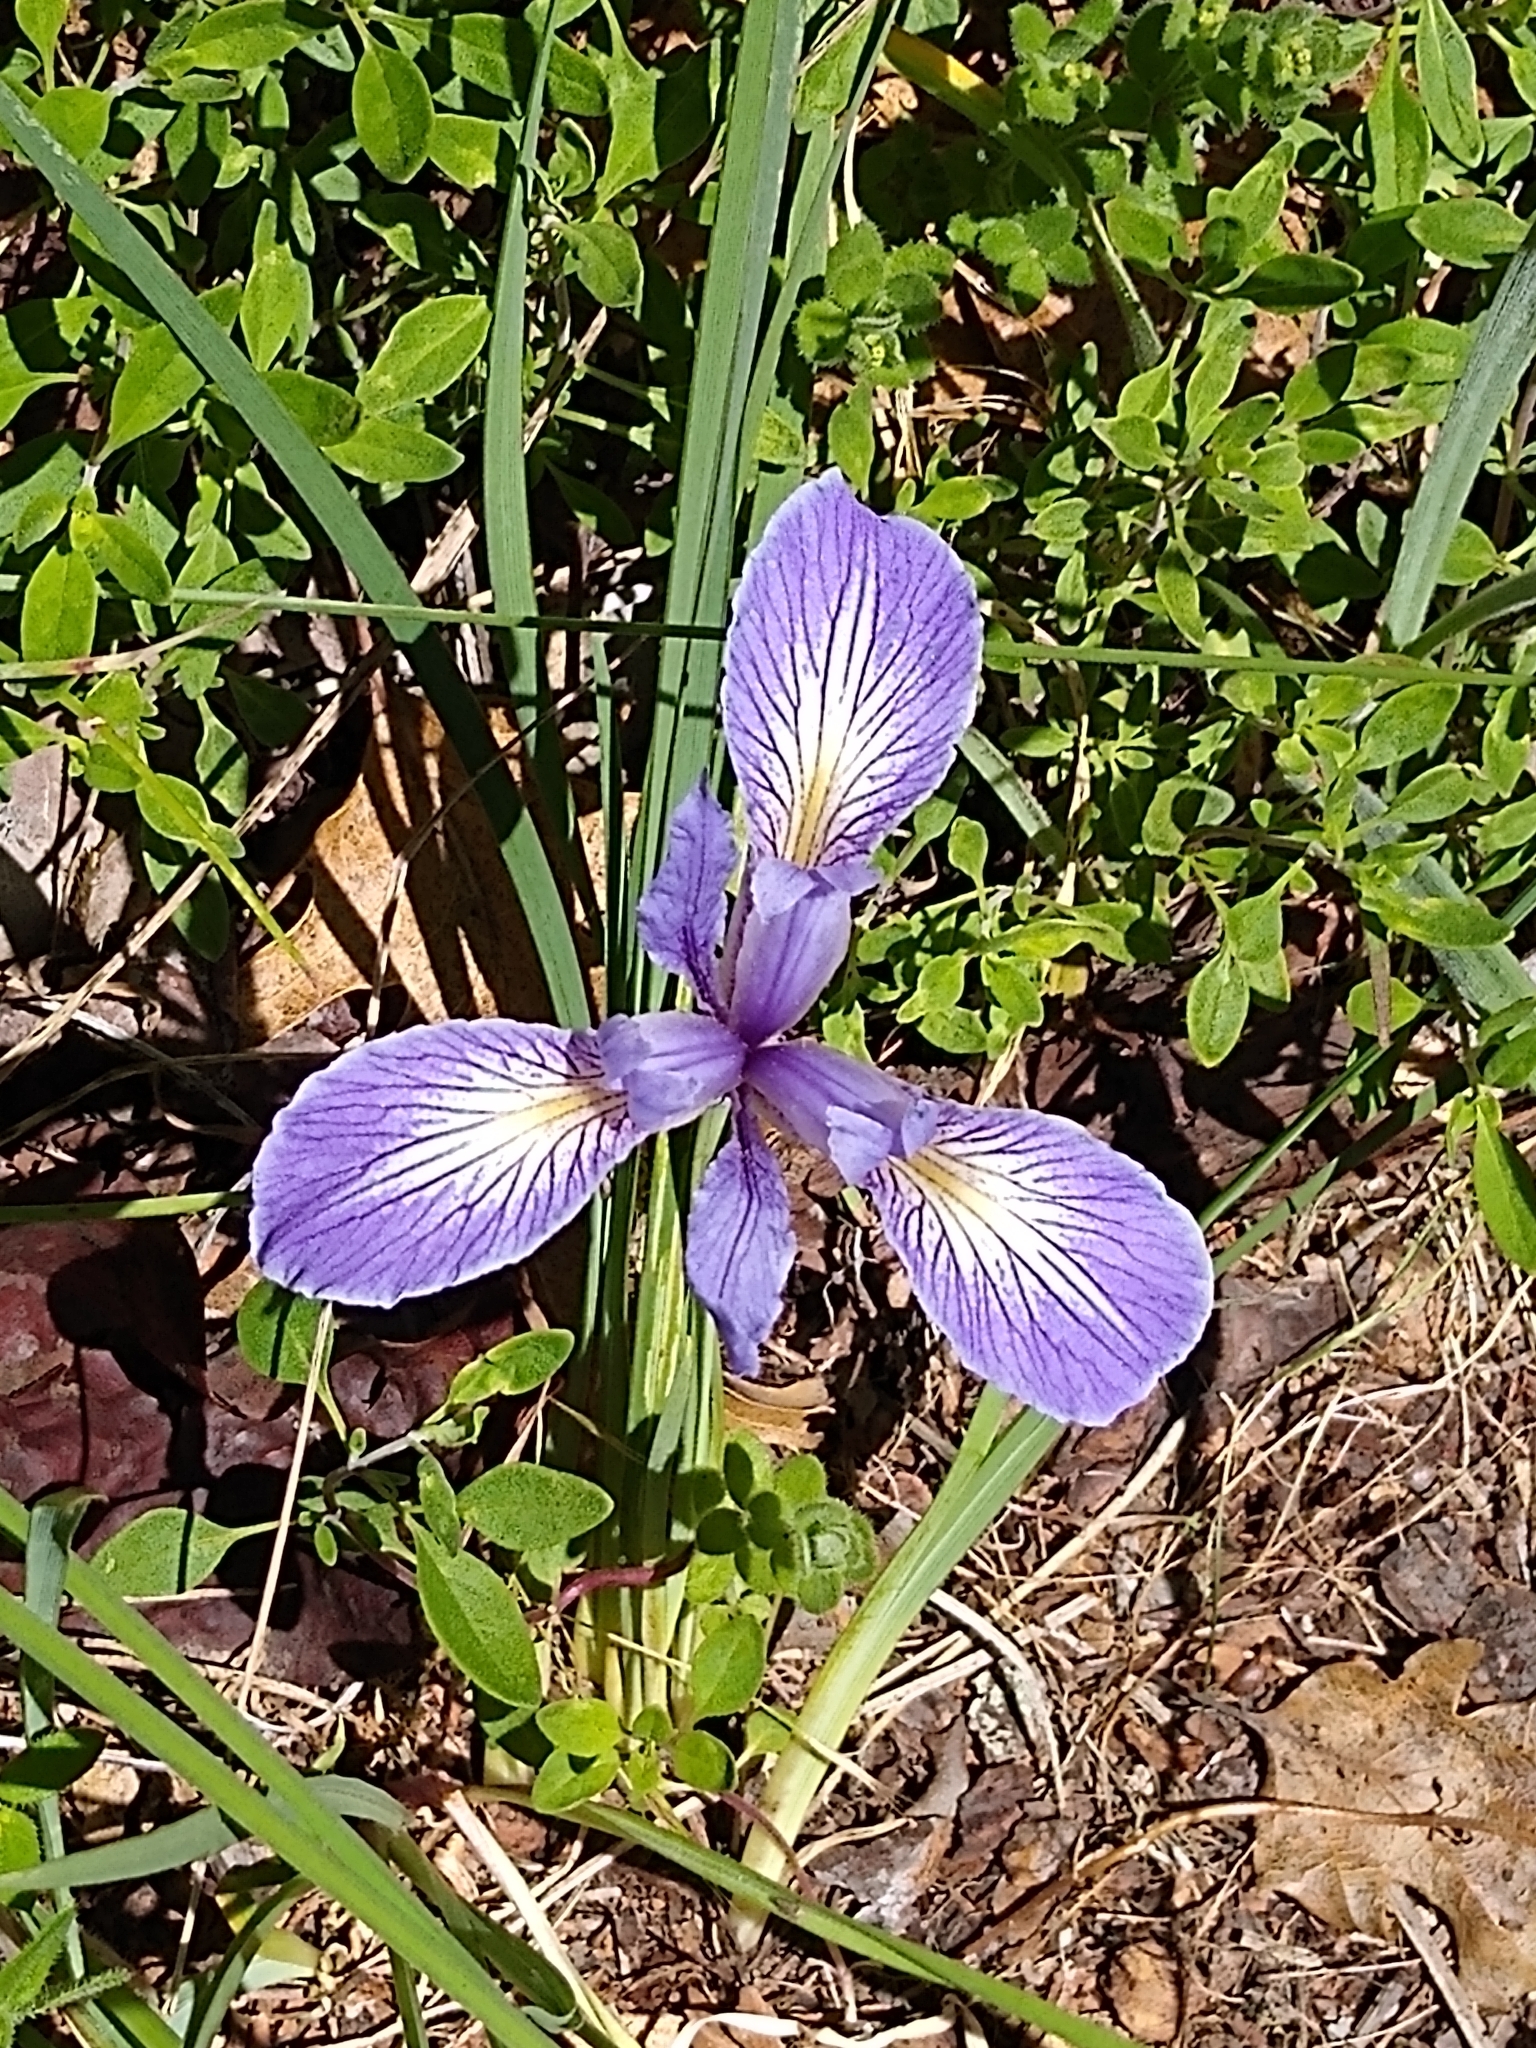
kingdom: Plantae
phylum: Tracheophyta
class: Liliopsida
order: Asparagales
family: Iridaceae
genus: Iris
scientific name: Iris macrosiphon
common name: Ground iris
